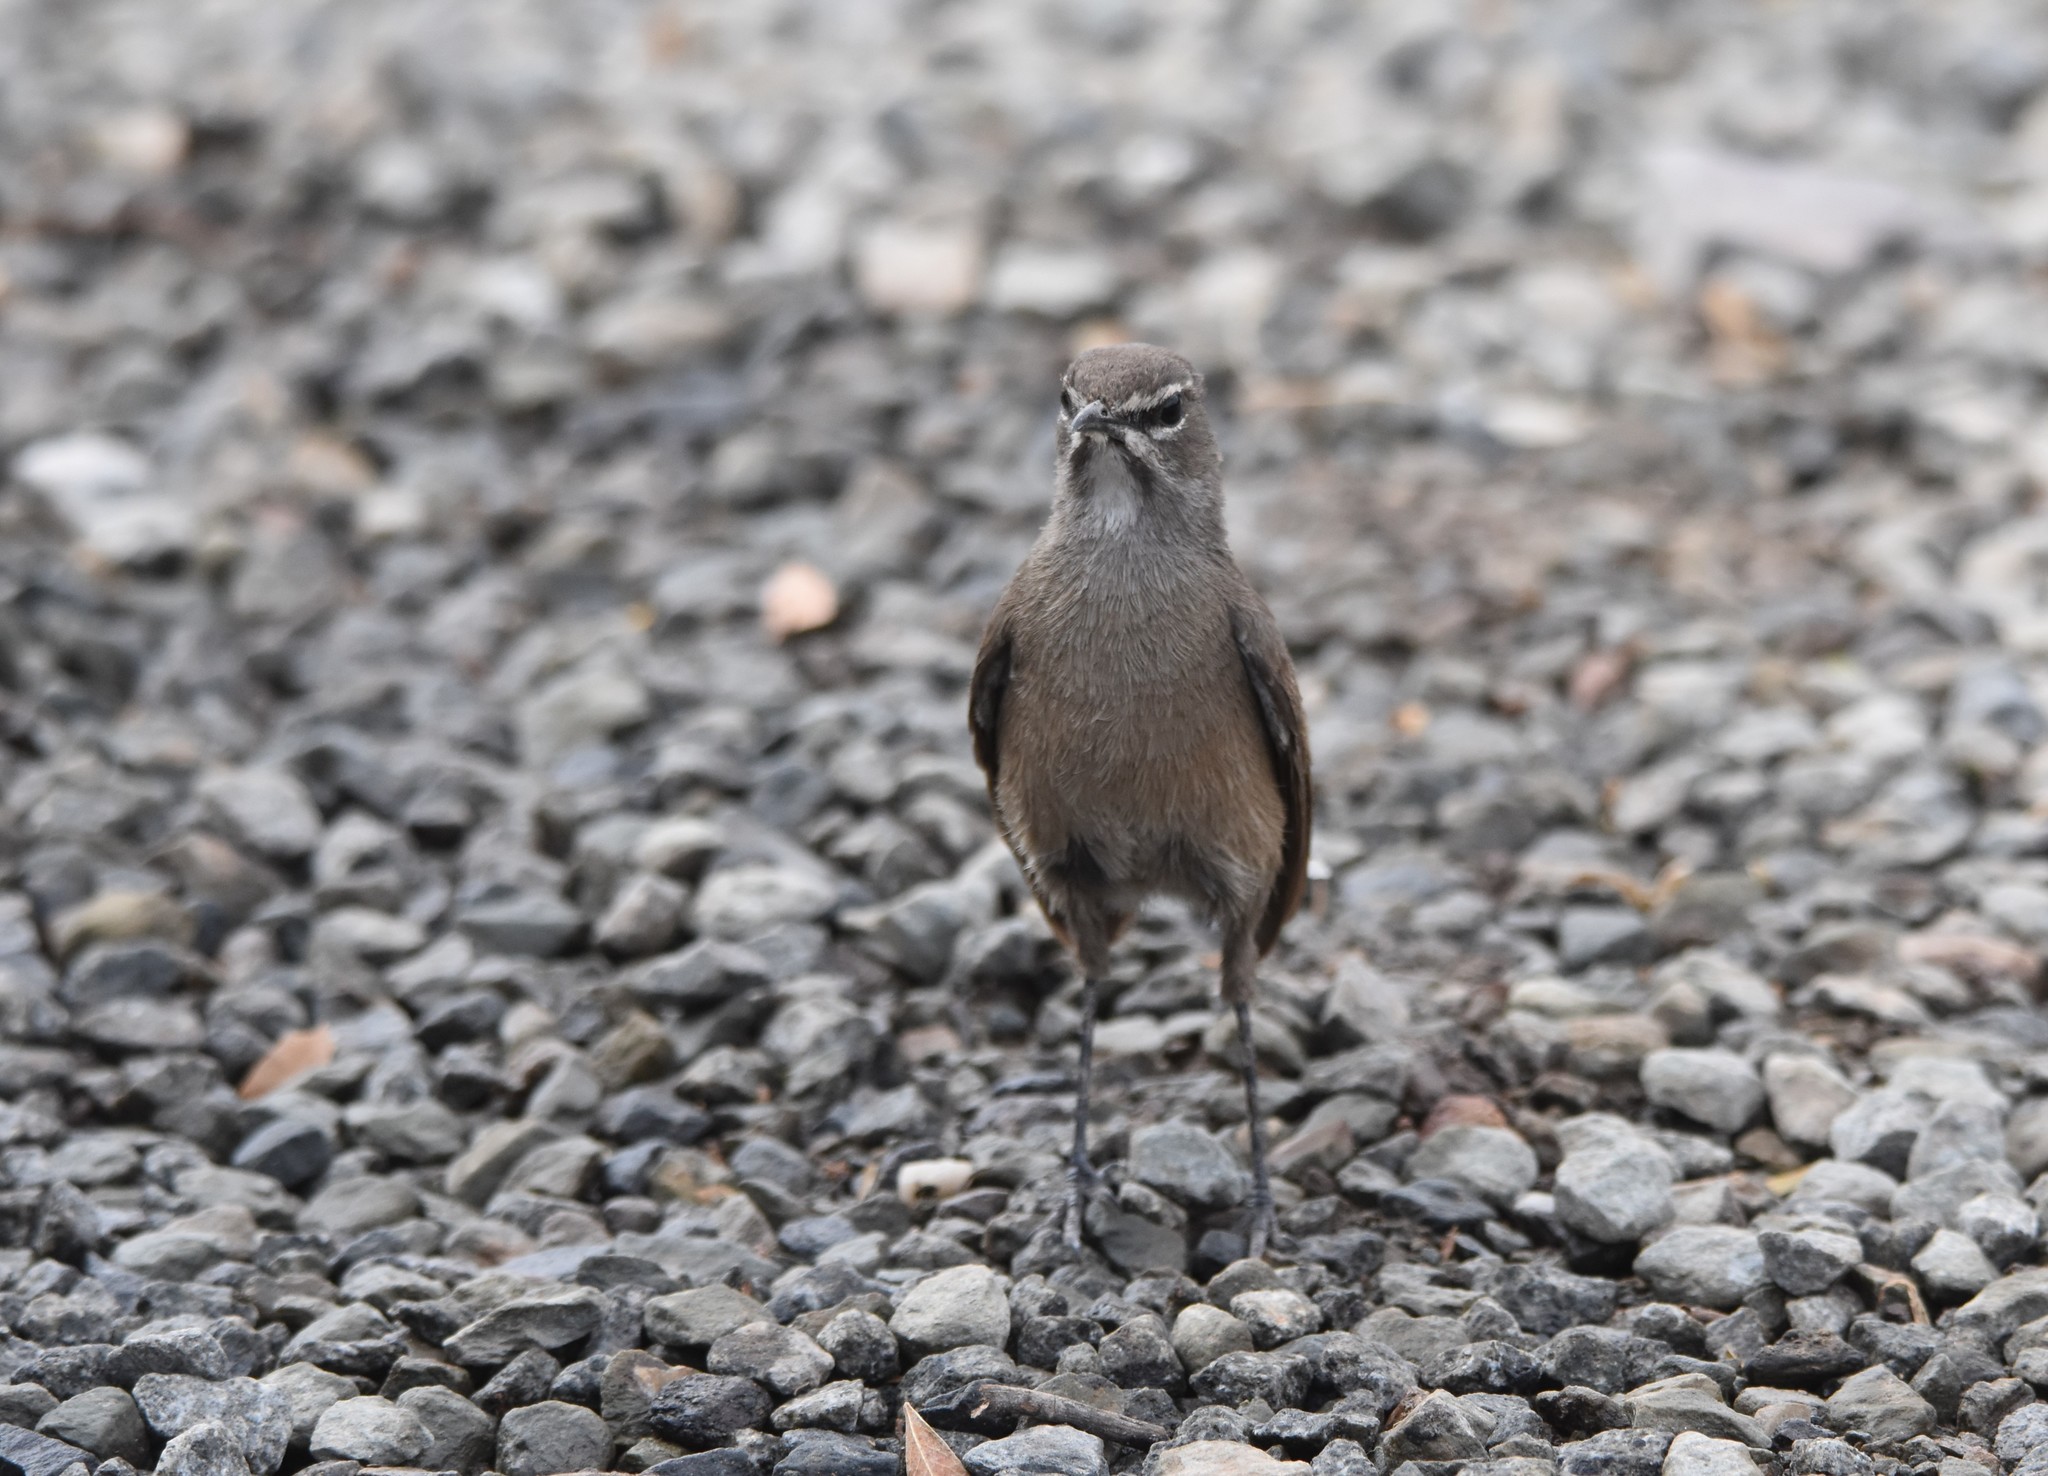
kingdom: Animalia
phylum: Chordata
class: Aves
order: Passeriformes
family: Muscicapidae
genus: Erythropygia
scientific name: Erythropygia coryphoeus
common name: Karoo scrub robin
